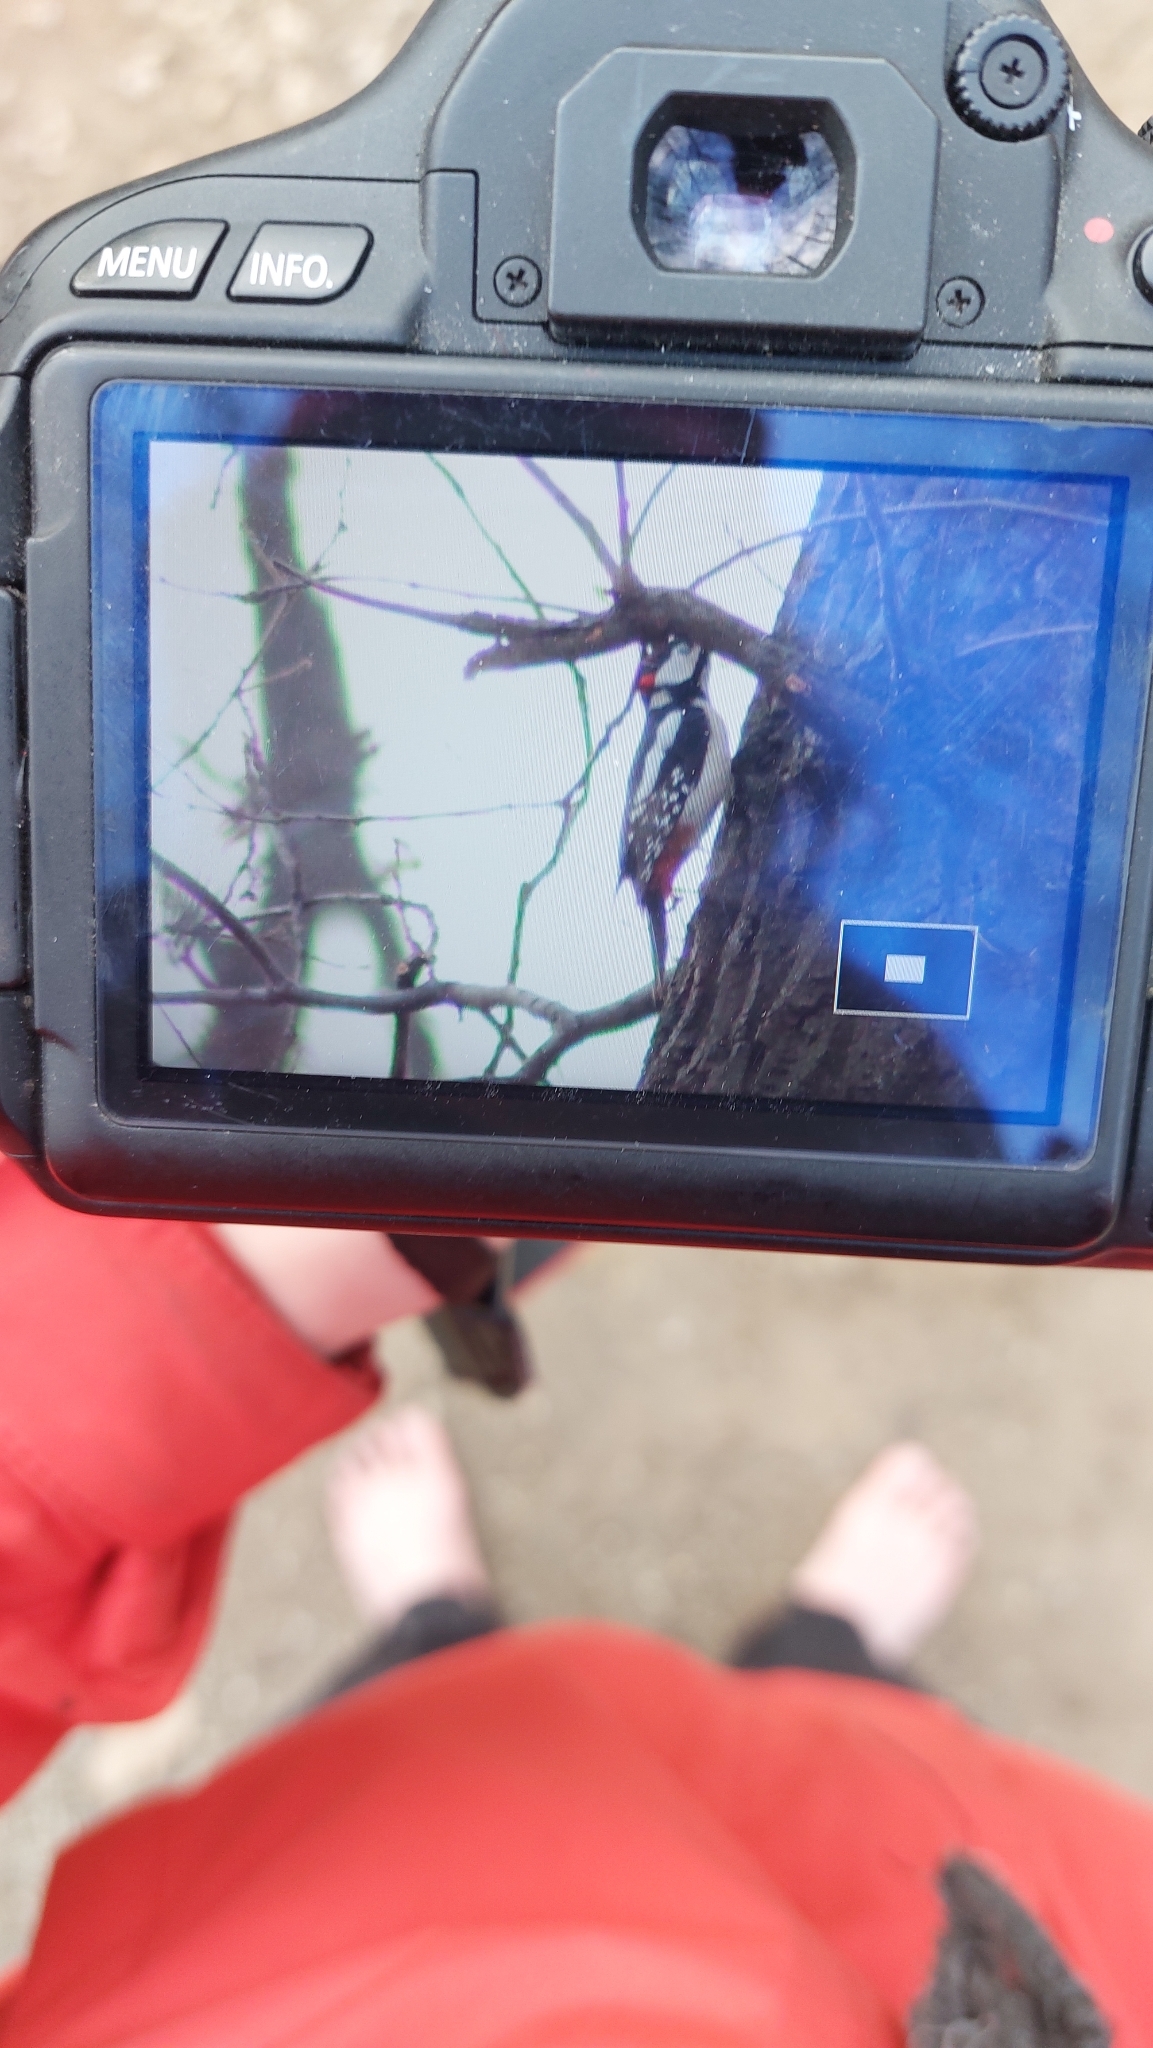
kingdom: Animalia
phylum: Chordata
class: Aves
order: Piciformes
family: Picidae
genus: Dendrocopos
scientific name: Dendrocopos major
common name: Great spotted woodpecker
